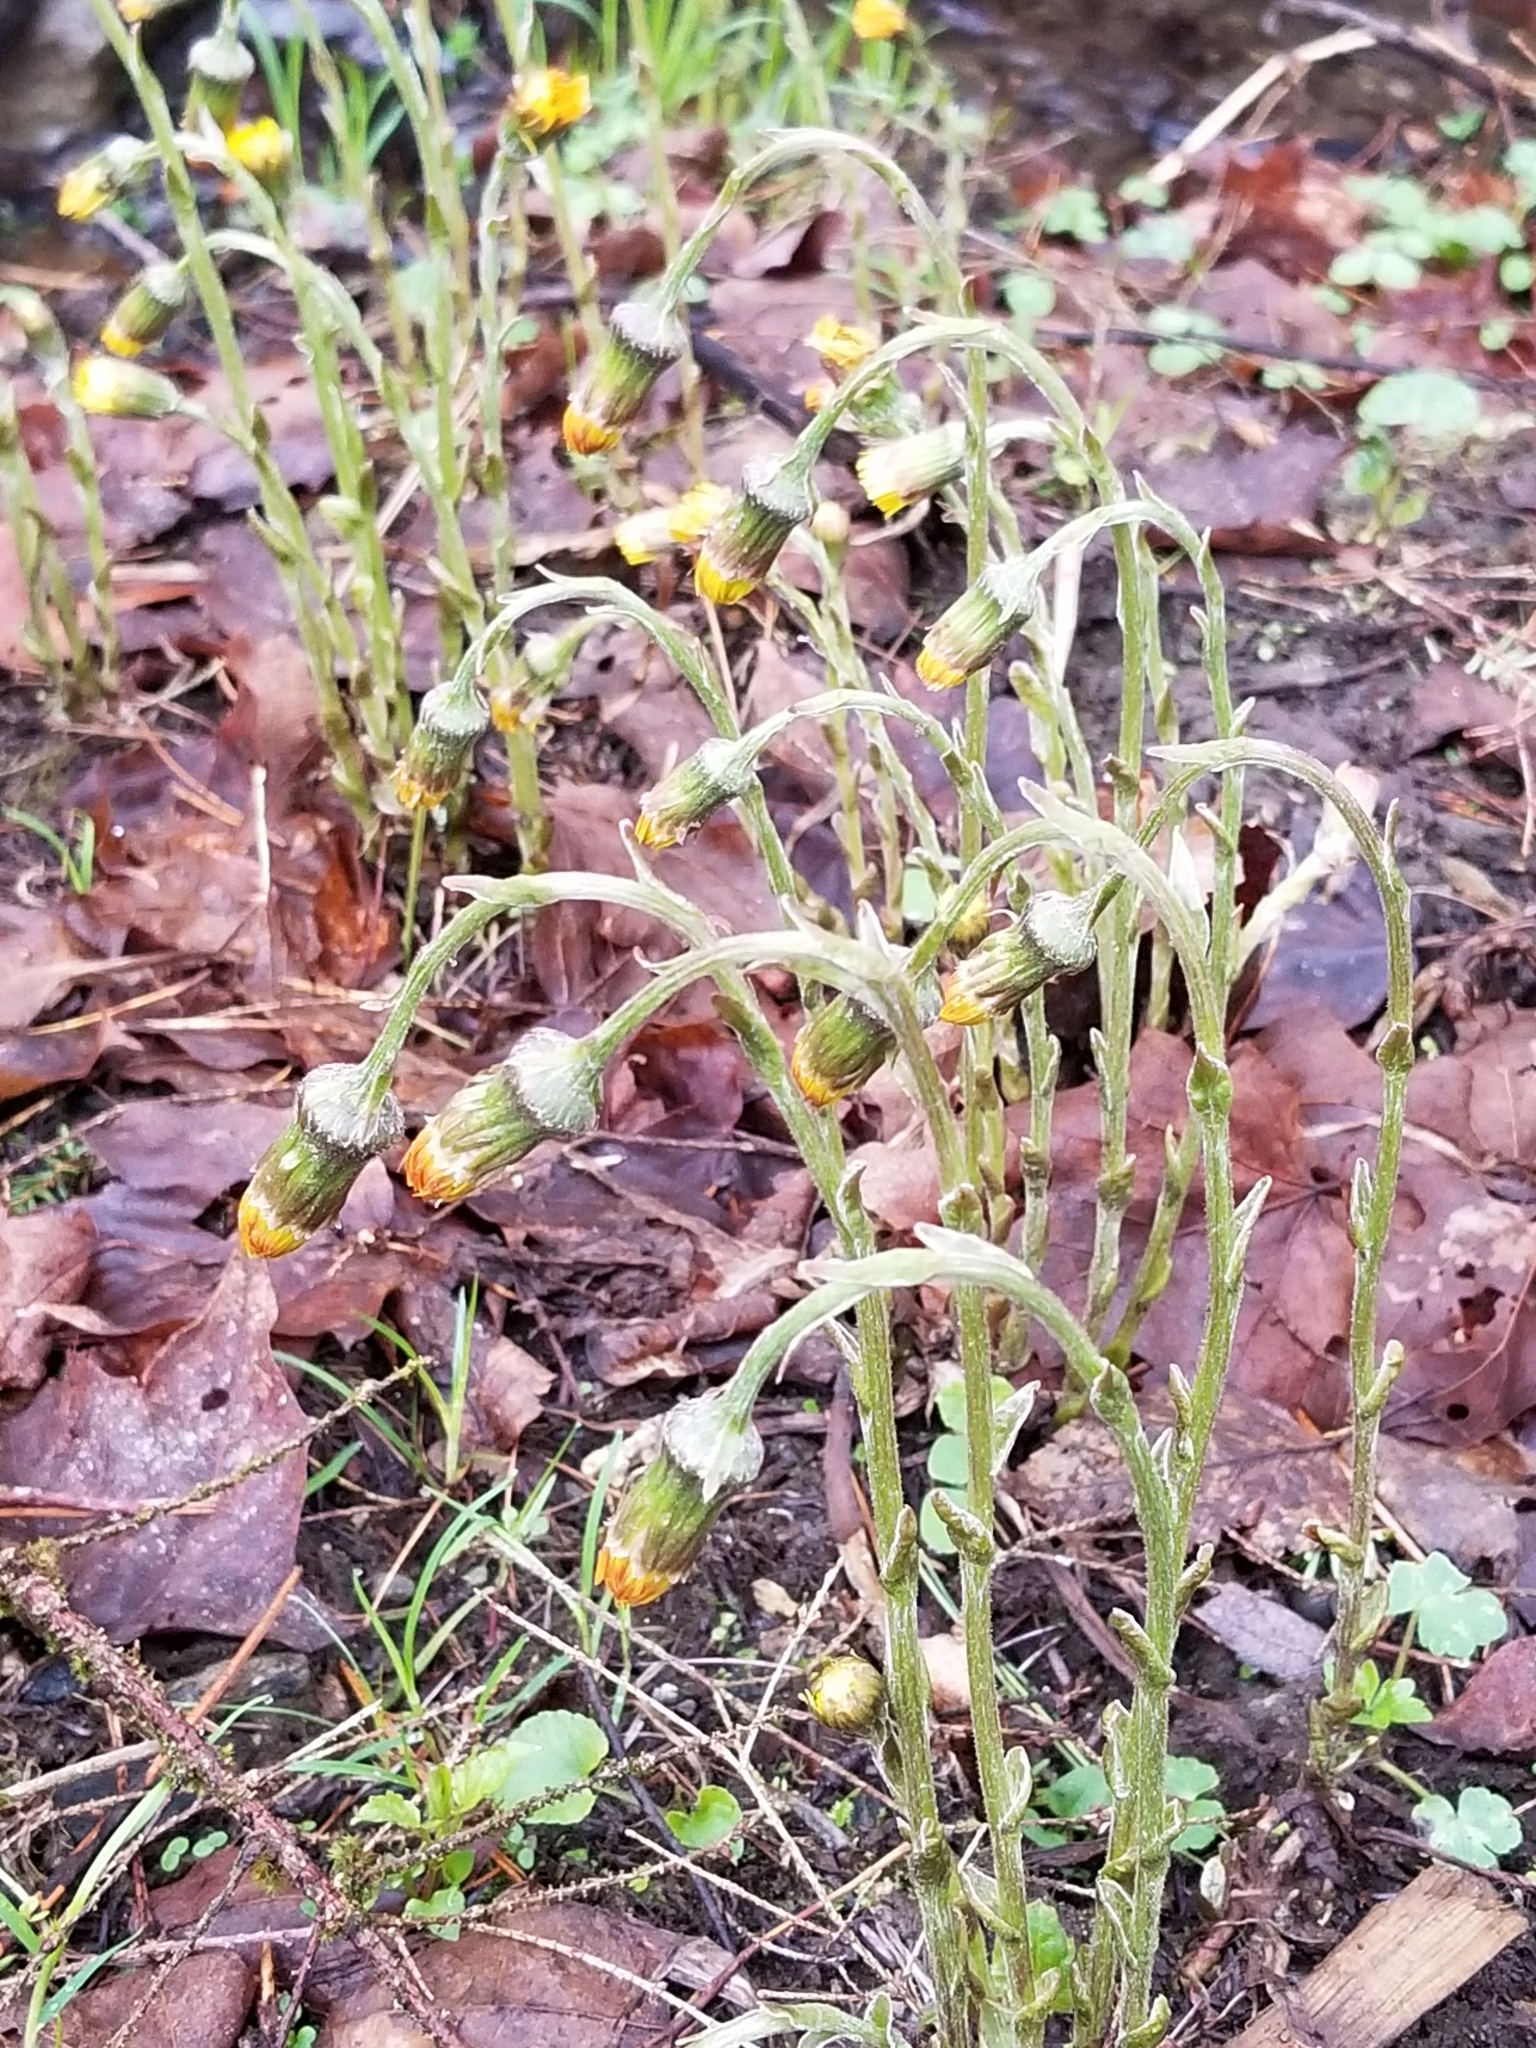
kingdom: Plantae
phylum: Tracheophyta
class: Magnoliopsida
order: Asterales
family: Asteraceae
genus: Tussilago
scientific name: Tussilago farfara
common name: Coltsfoot
